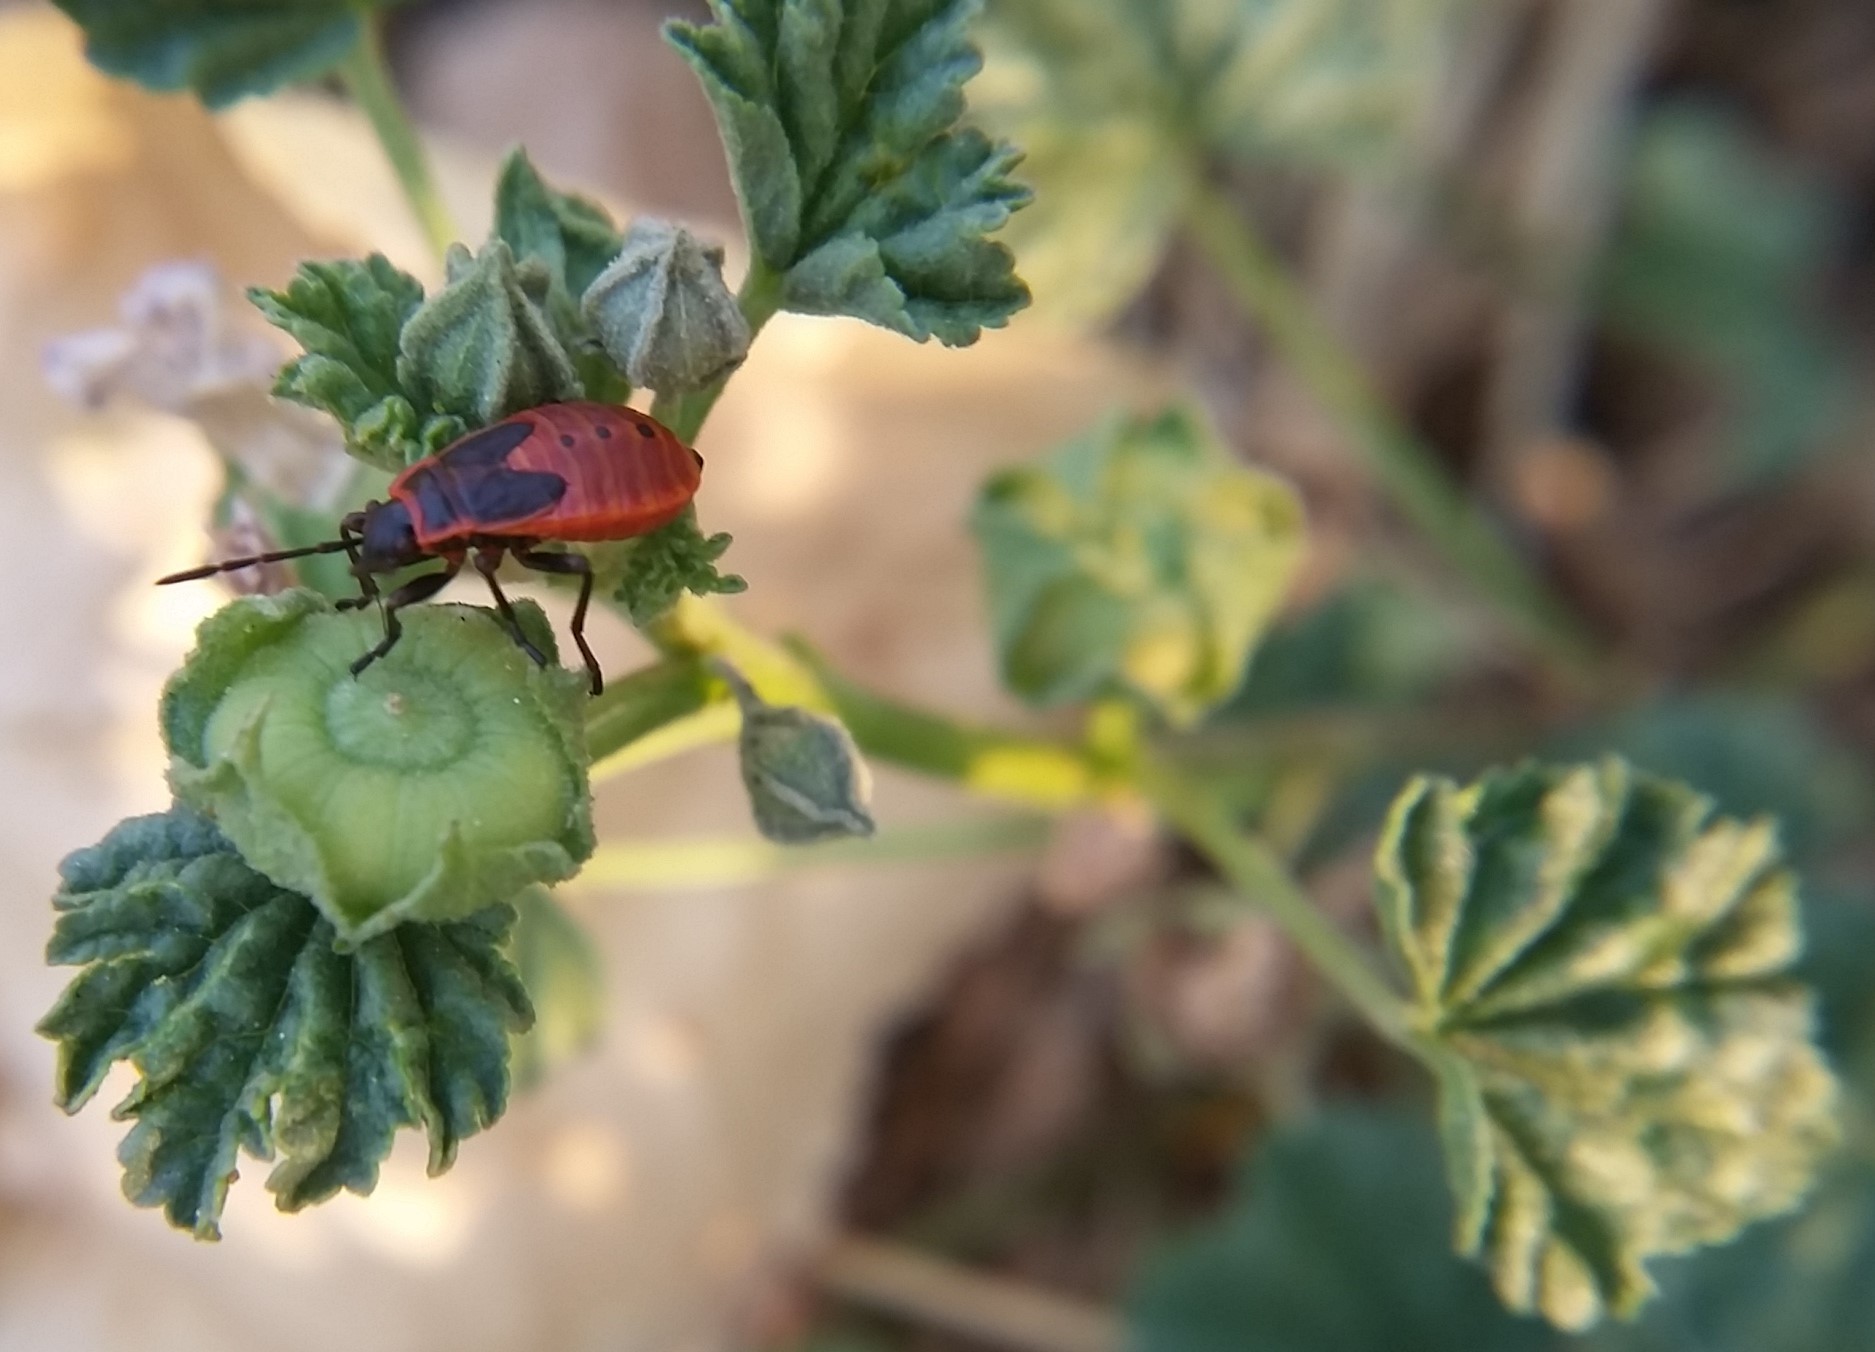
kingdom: Plantae
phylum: Tracheophyta
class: Magnoliopsida
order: Malvales
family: Malvaceae
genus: Malva
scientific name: Malva neglecta
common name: Common mallow
